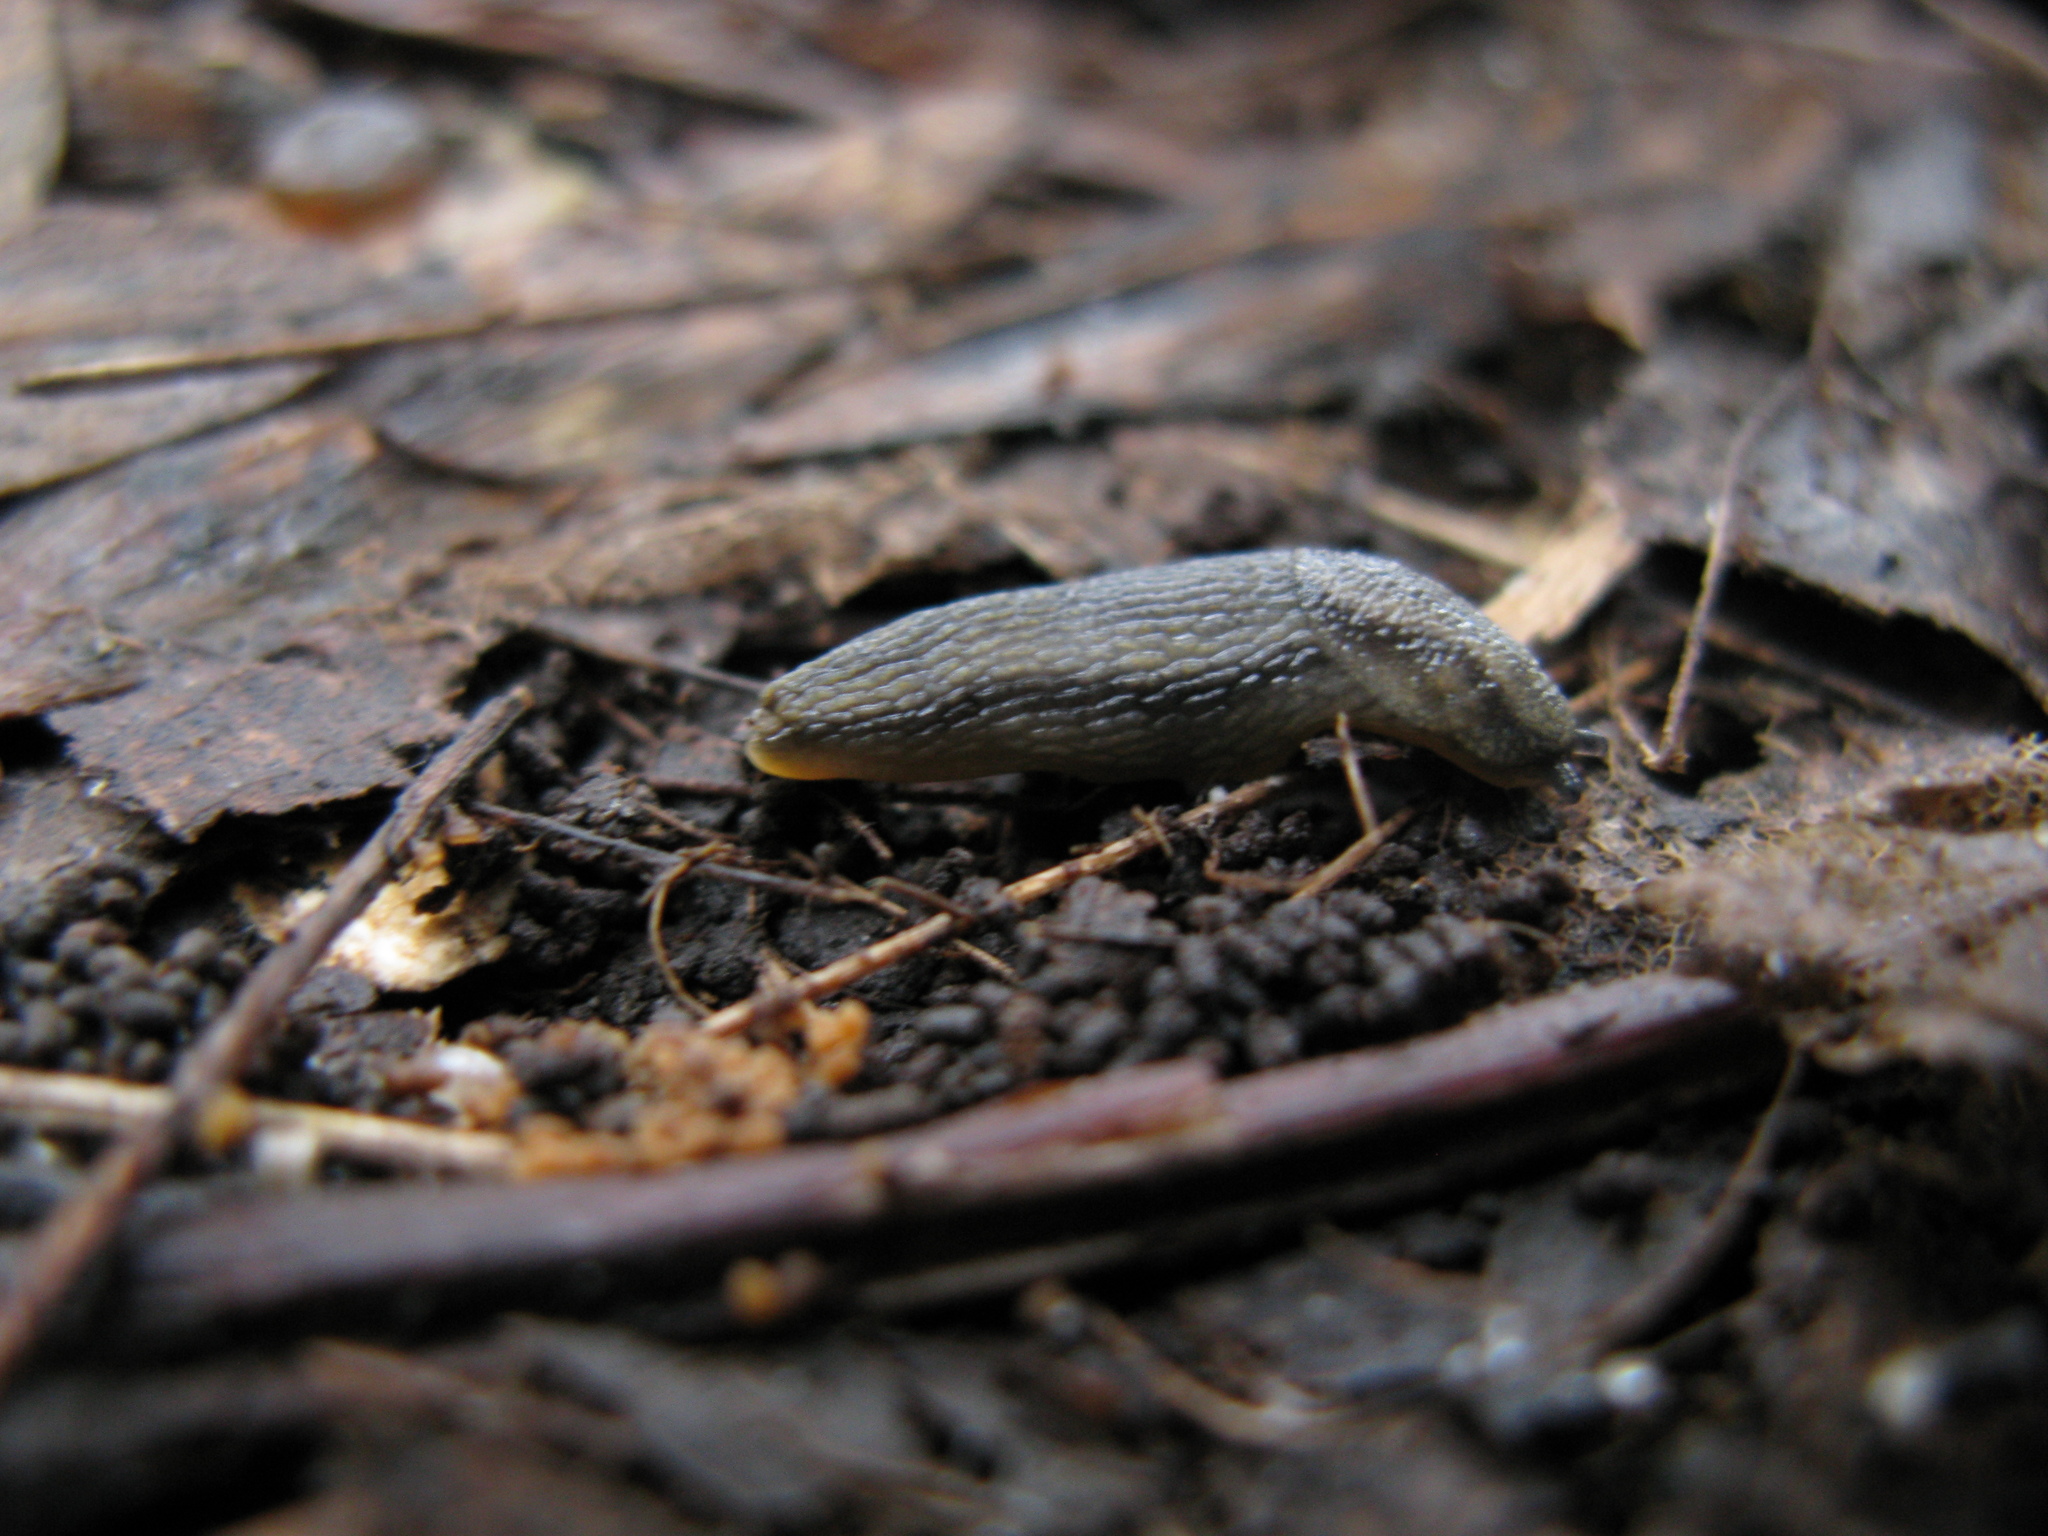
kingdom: Animalia
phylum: Mollusca
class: Gastropoda
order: Stylommatophora
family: Arionidae
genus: Arion
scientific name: Arion distinctus
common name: Darkface arion
